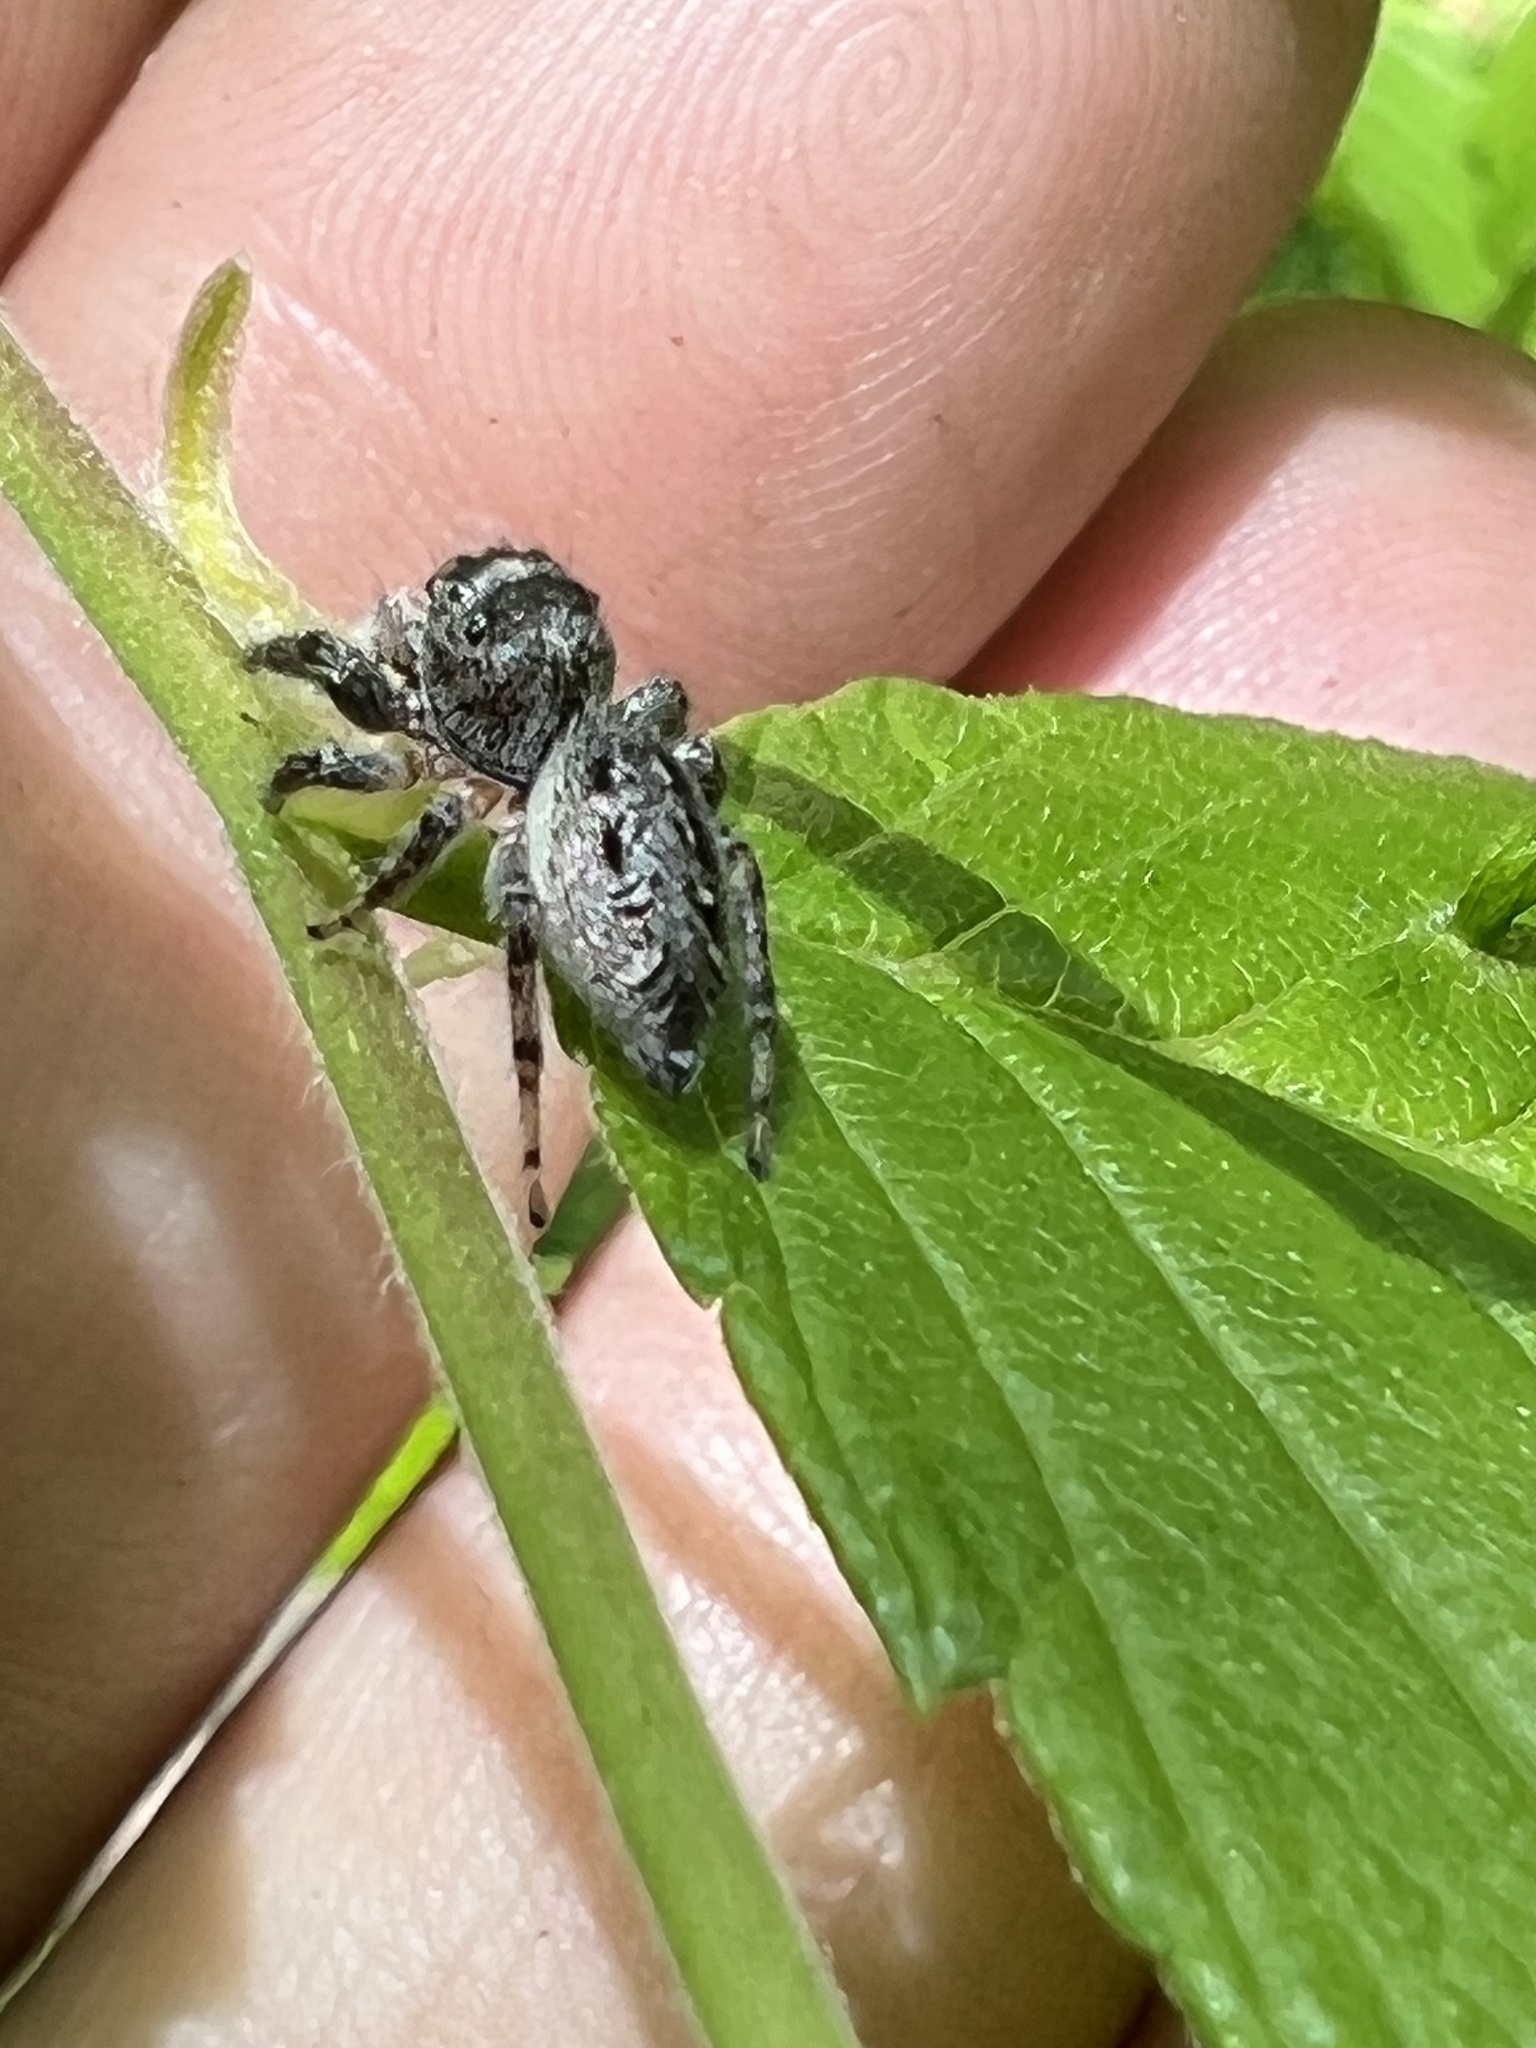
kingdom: Animalia
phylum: Arthropoda
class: Arachnida
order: Araneae
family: Salticidae
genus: Eris
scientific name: Eris militaris
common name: Bronze jumper
